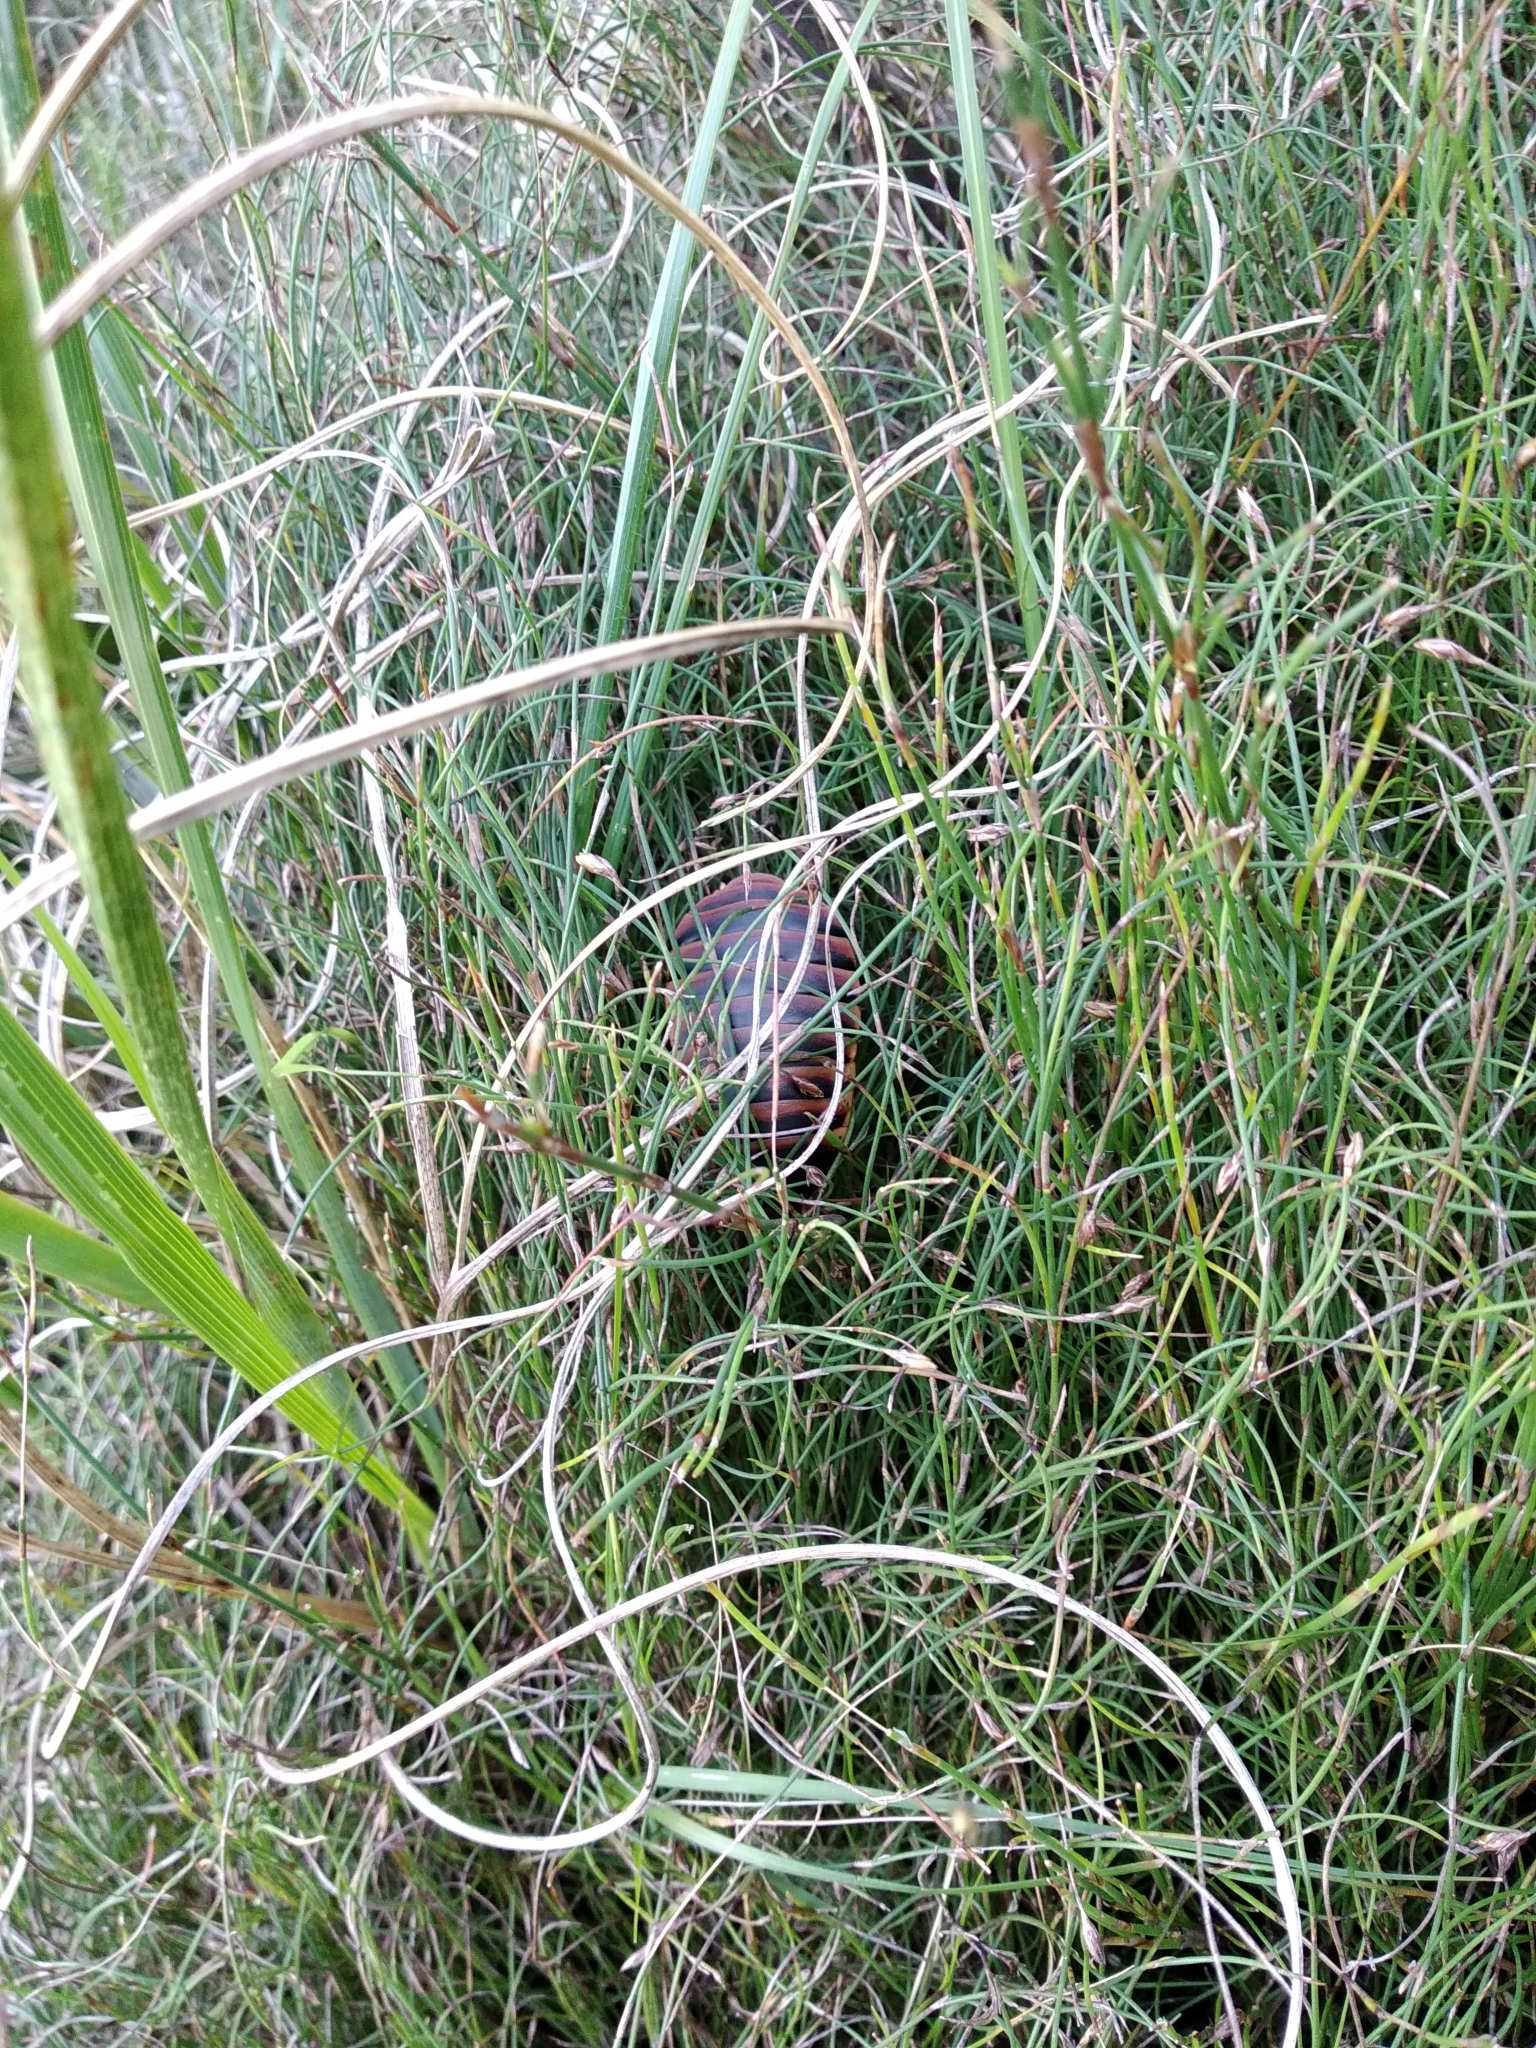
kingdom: Animalia
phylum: Arthropoda
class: Insecta
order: Blattodea
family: Blaberidae
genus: Aptera
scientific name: Aptera fusca
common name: Cape mountain cockroach
